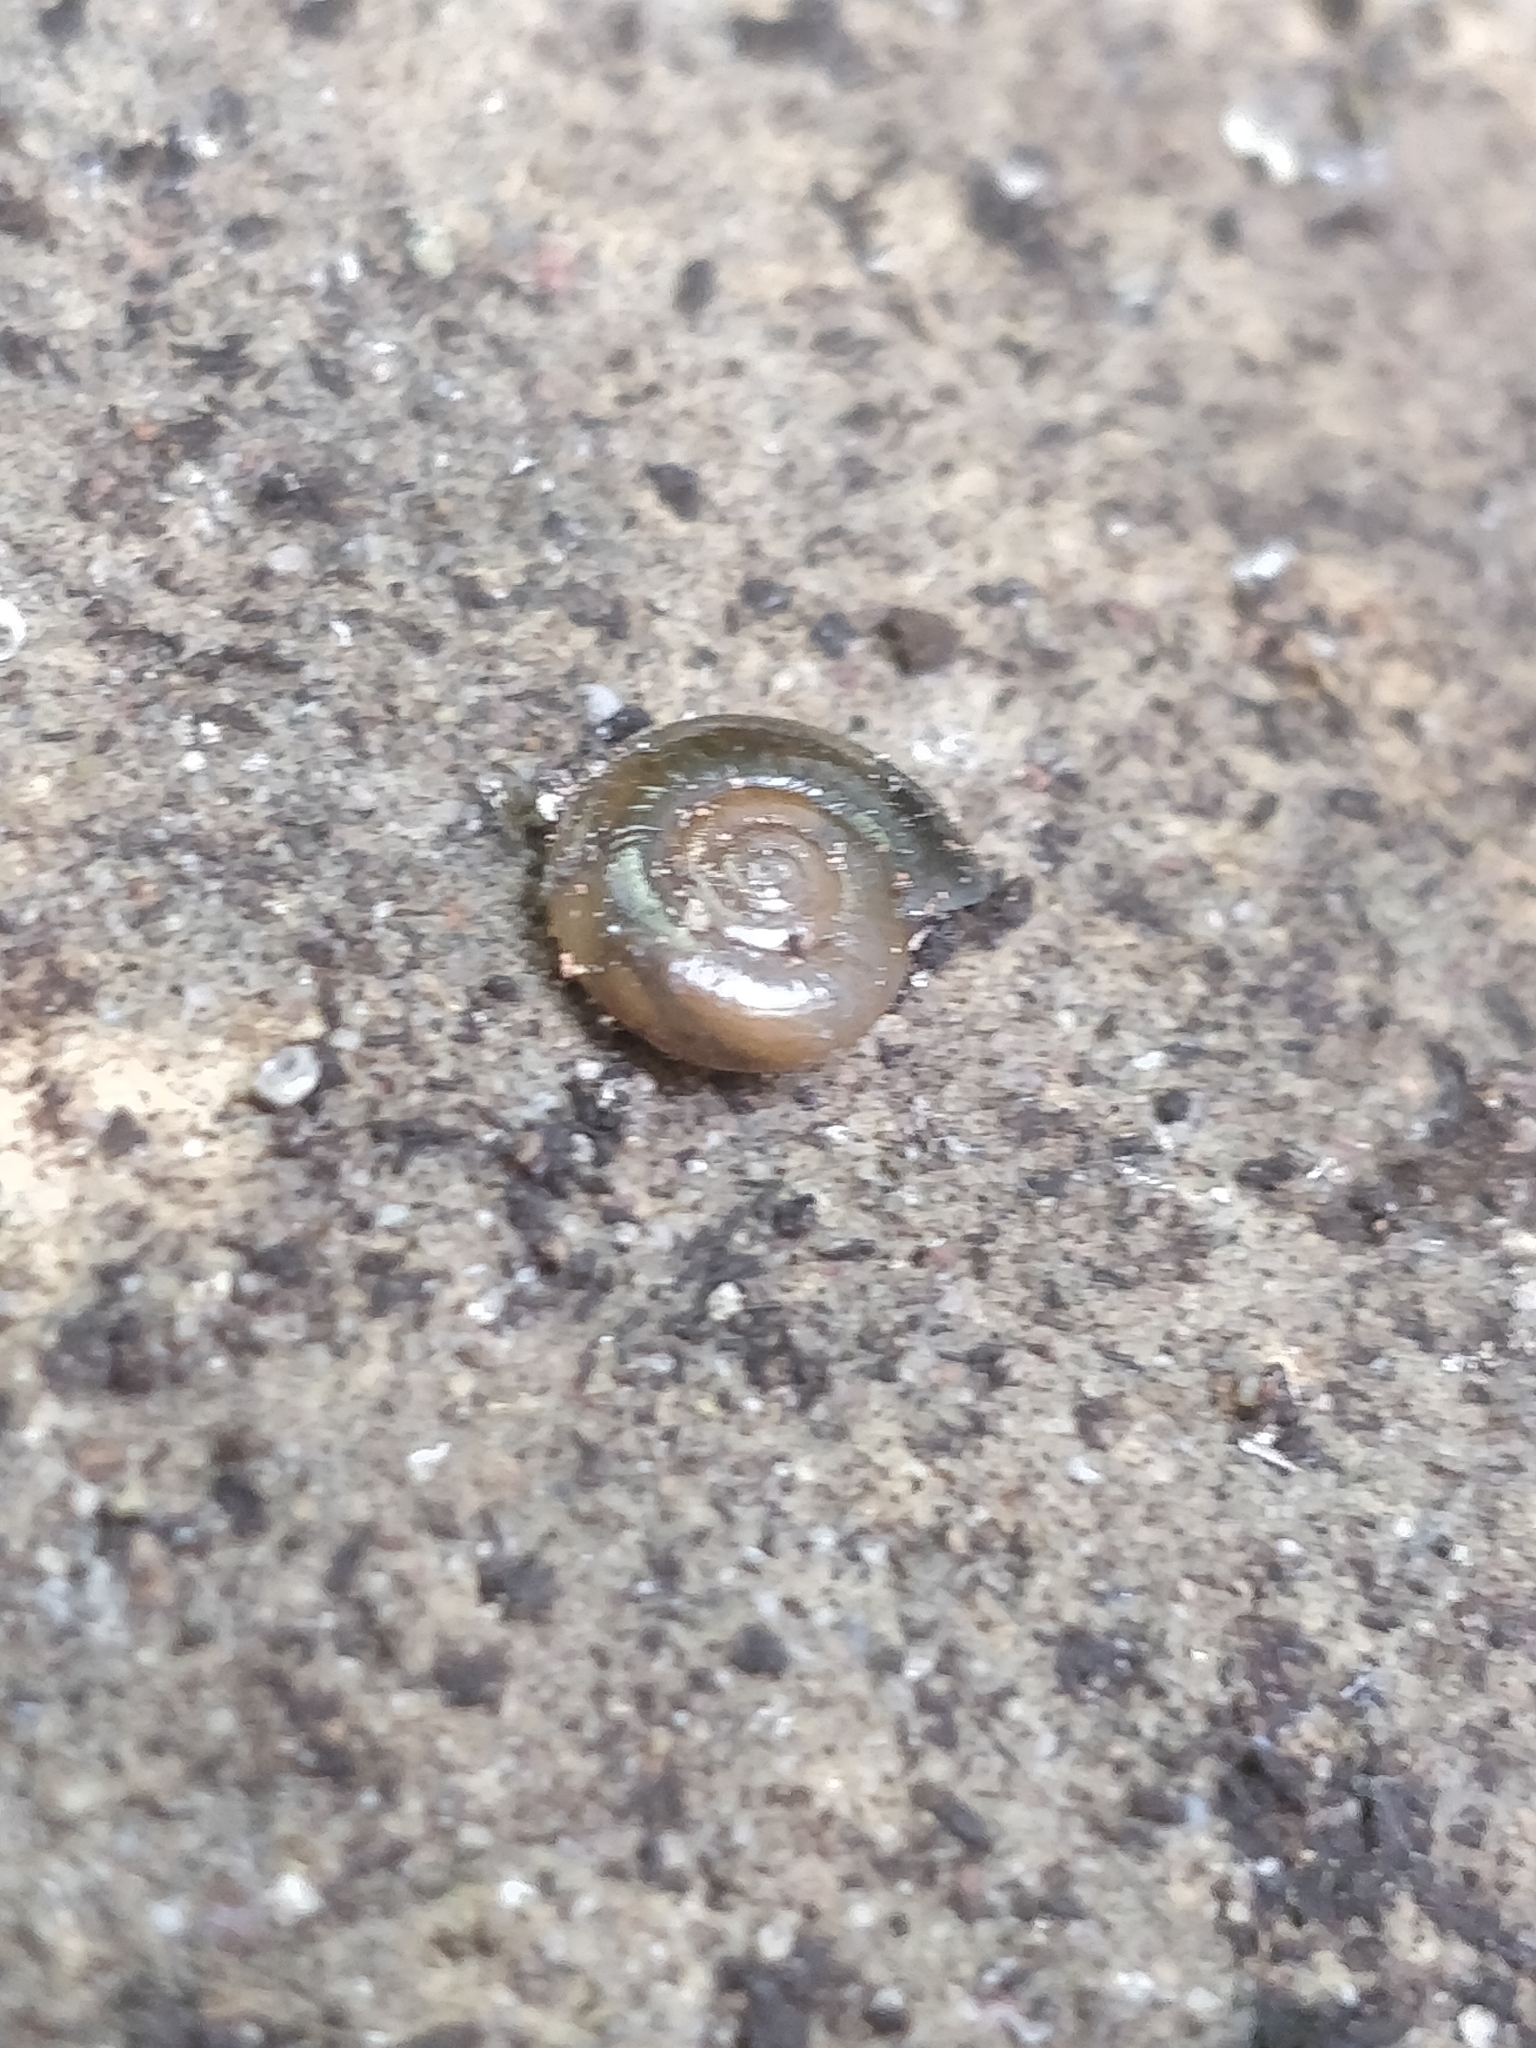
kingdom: Animalia
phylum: Mollusca
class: Gastropoda
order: Stylommatophora
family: Oxychilidae
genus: Oxychilus
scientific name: Oxychilus draparnaudi
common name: Draparnaud's glass snail
